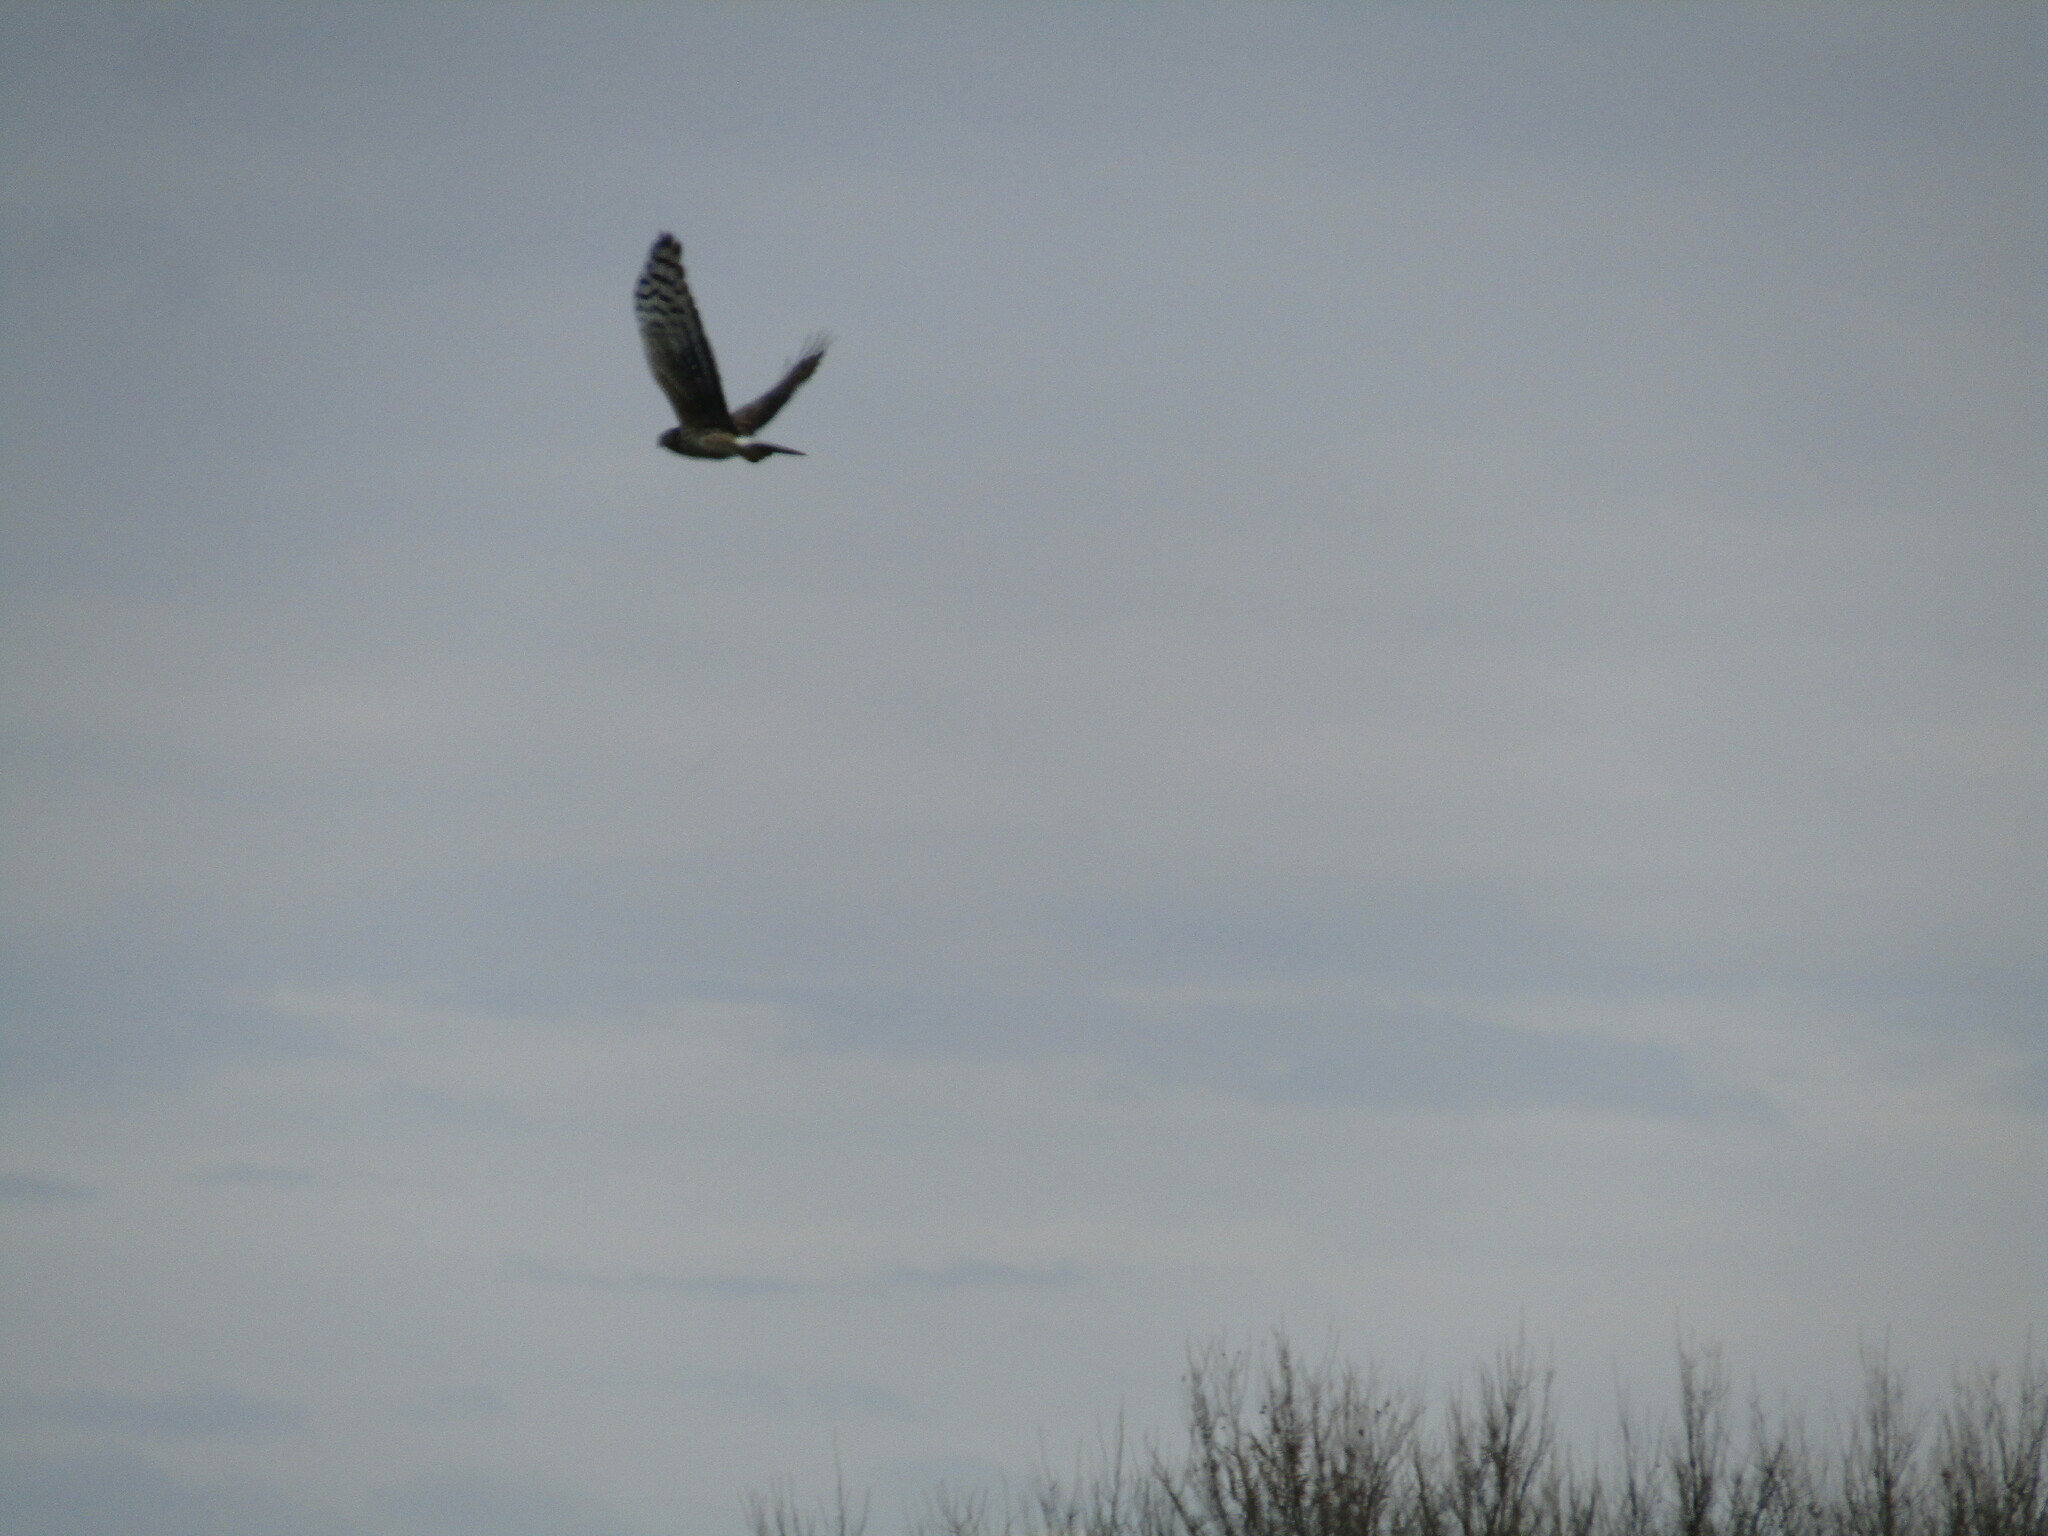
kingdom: Animalia
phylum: Chordata
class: Aves
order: Accipitriformes
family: Accipitridae
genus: Circus
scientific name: Circus cyaneus
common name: Hen harrier
